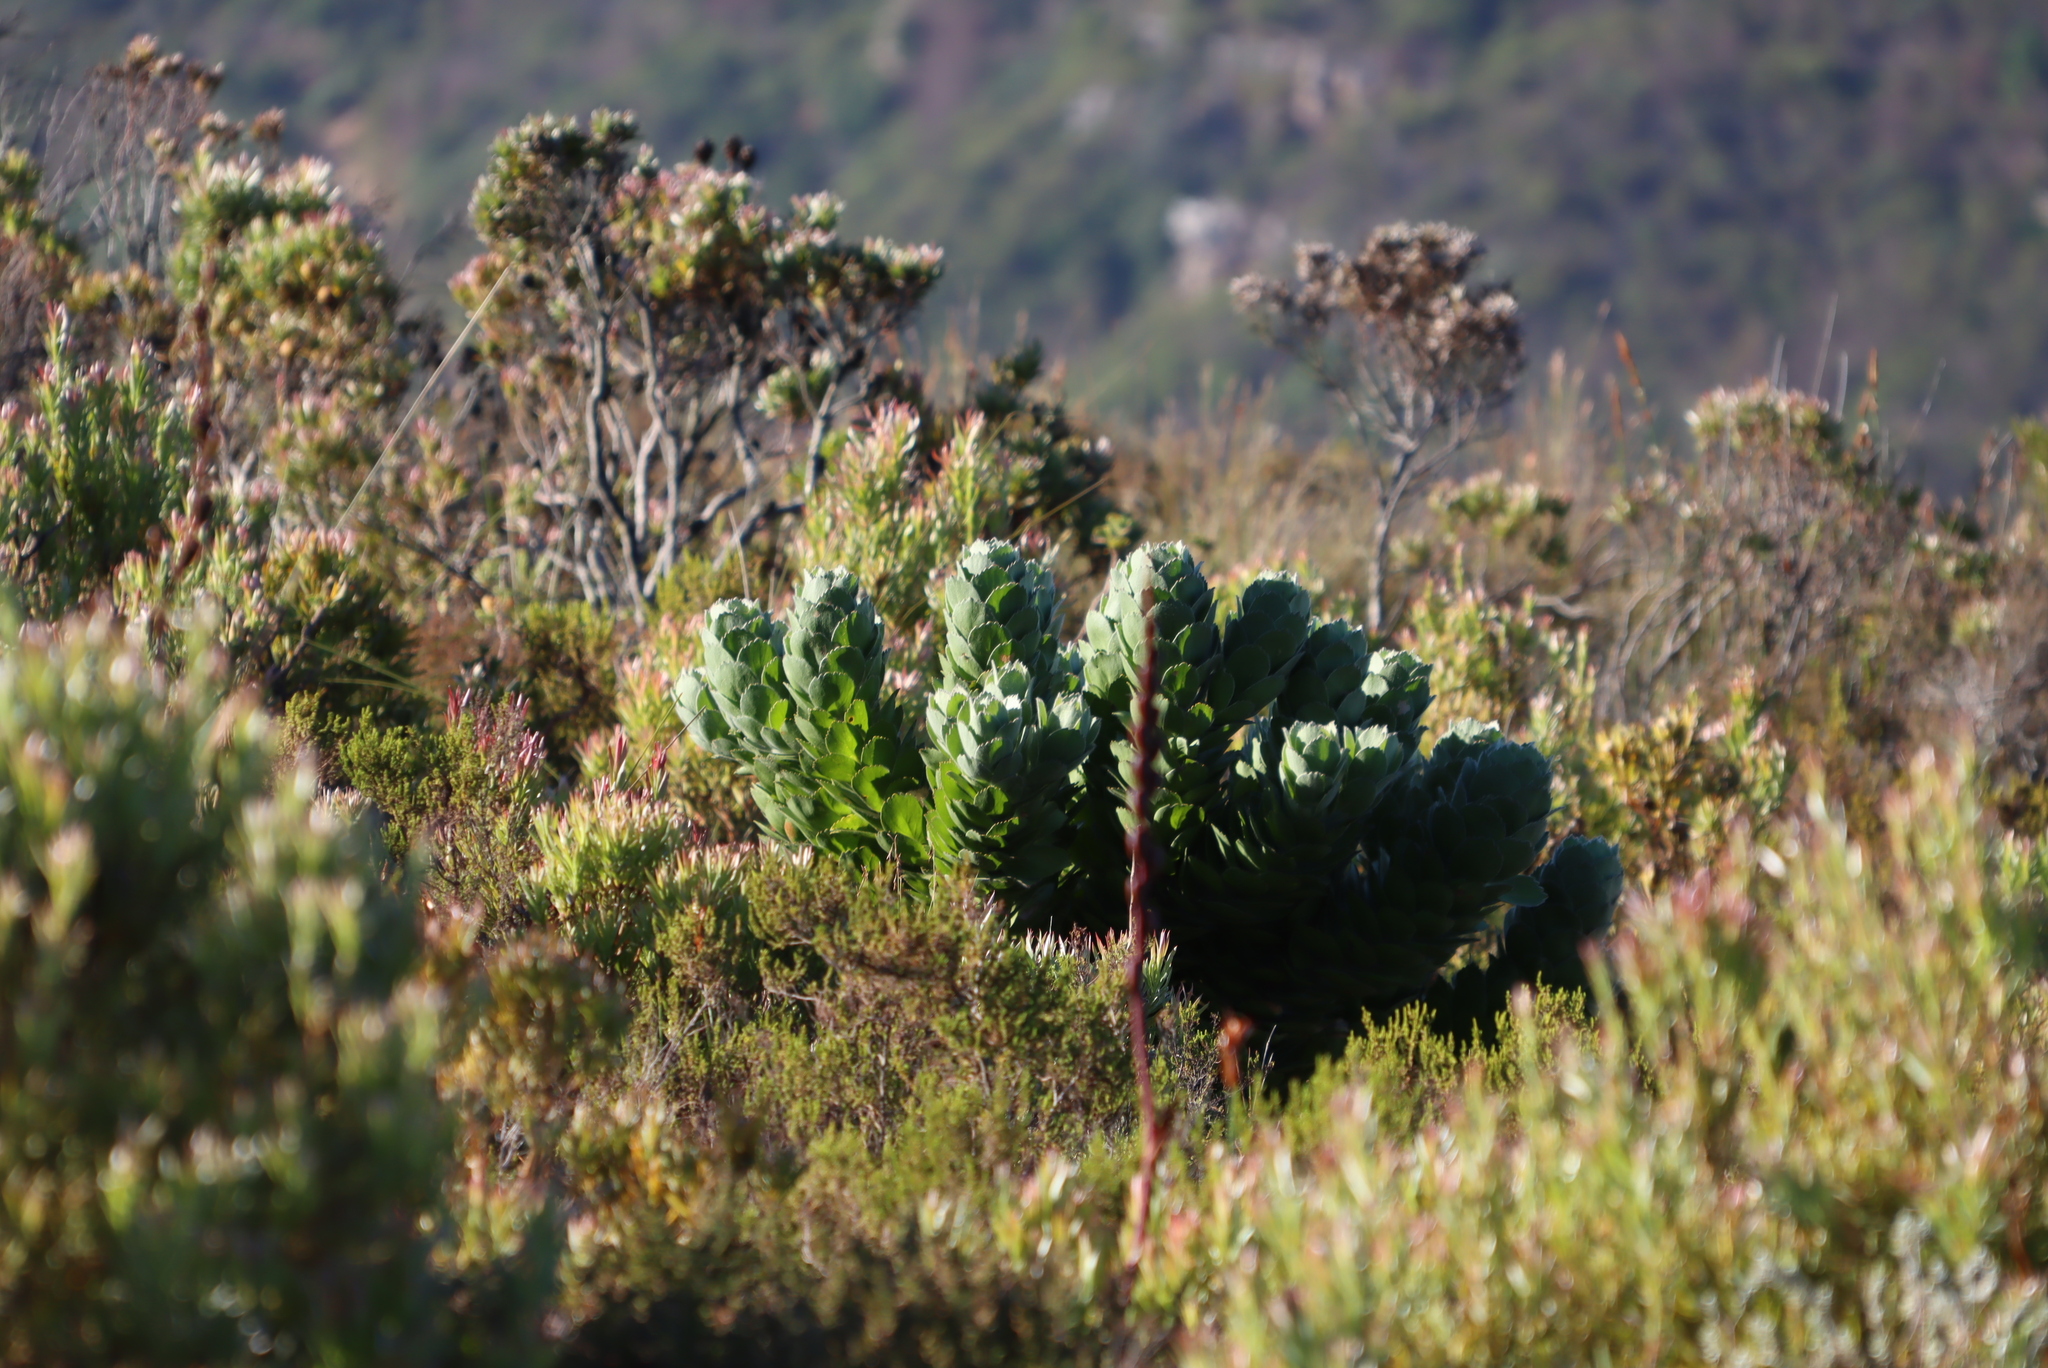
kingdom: Plantae
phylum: Tracheophyta
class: Magnoliopsida
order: Proteales
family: Proteaceae
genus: Leucospermum
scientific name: Leucospermum conocarpodendron
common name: Tree pincushion
